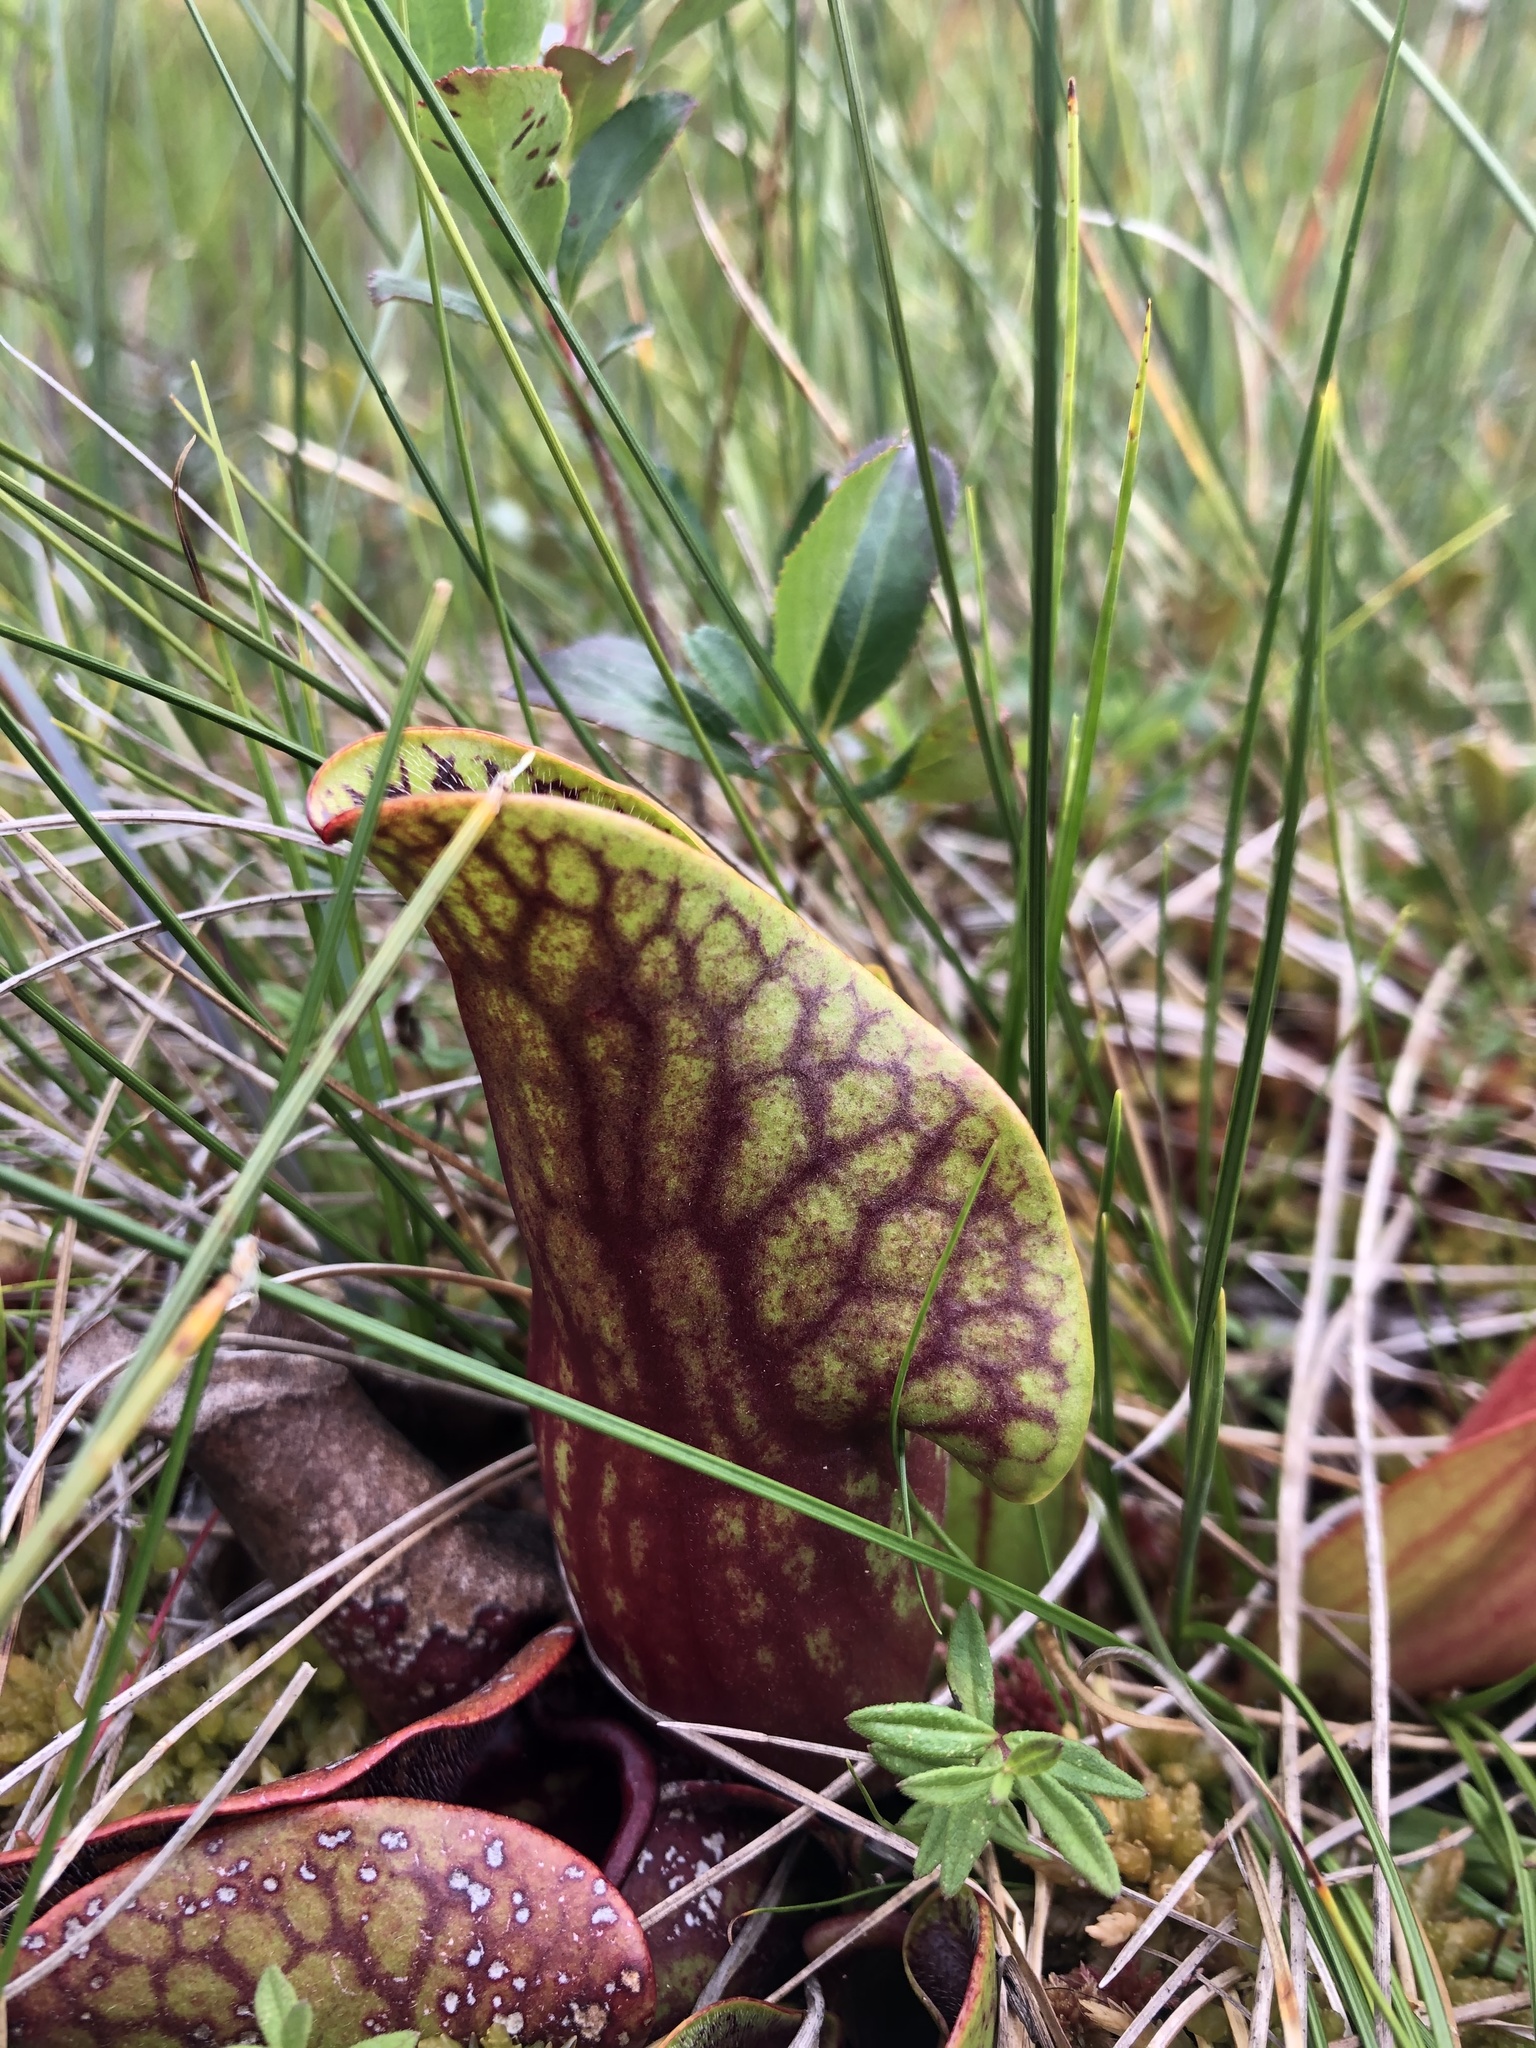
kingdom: Plantae
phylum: Tracheophyta
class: Magnoliopsida
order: Ericales
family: Sarraceniaceae
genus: Sarracenia
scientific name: Sarracenia purpurea
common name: Pitcherplant
